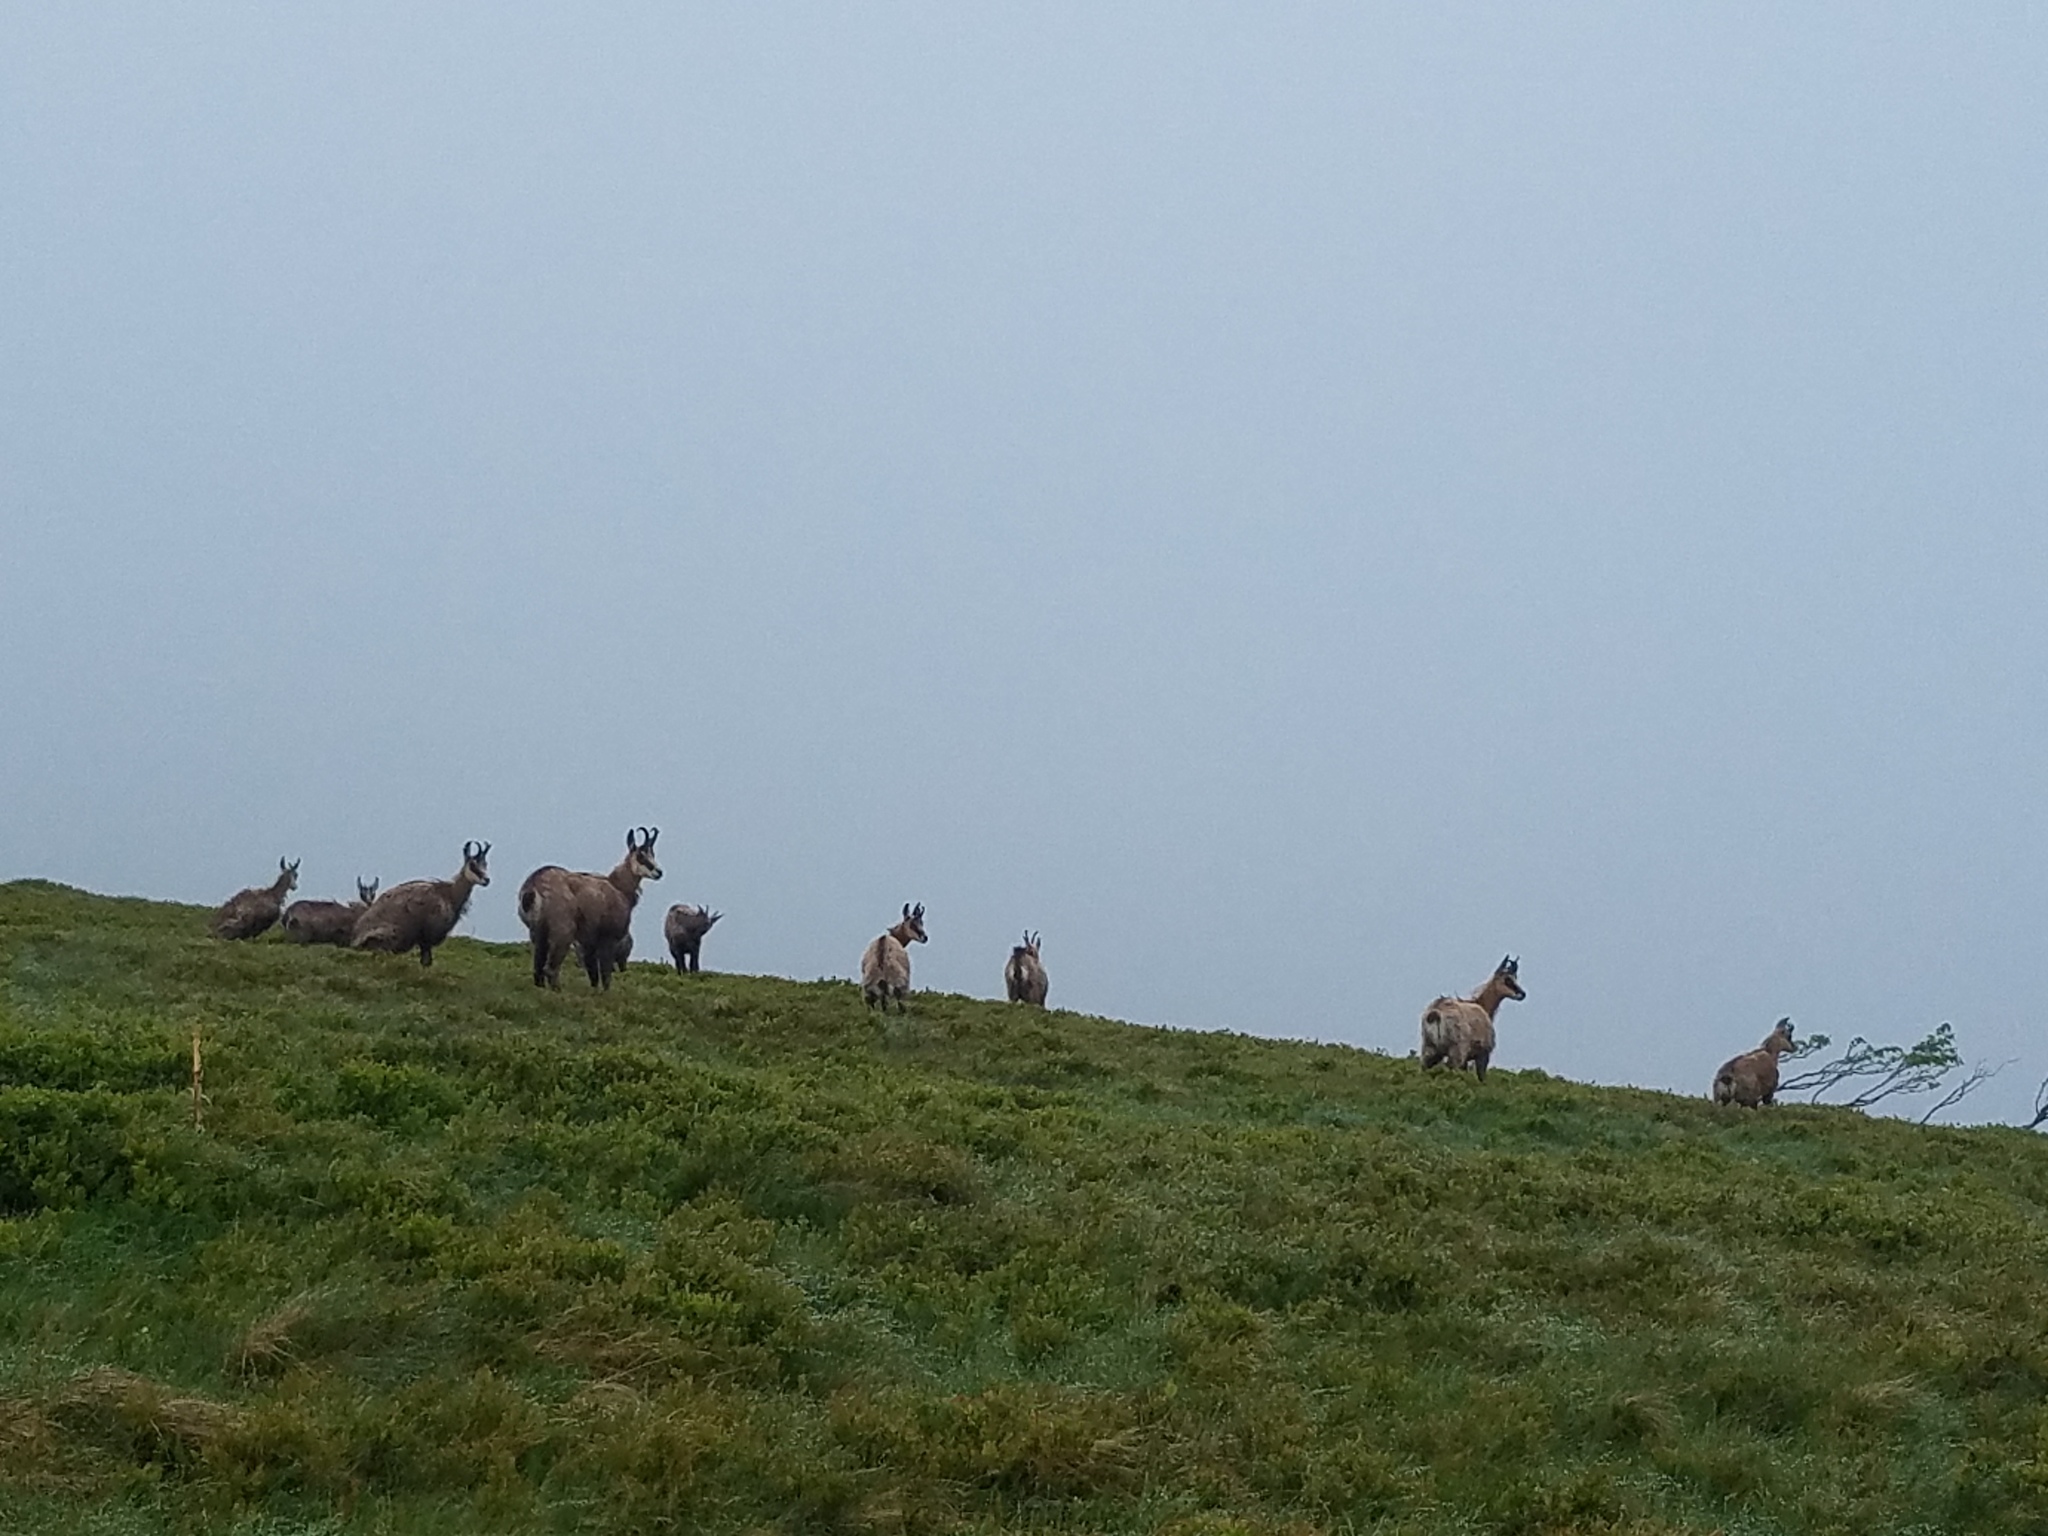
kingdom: Animalia
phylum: Chordata
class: Mammalia
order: Artiodactyla
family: Bovidae
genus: Rupicapra
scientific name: Rupicapra rupicapra
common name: Chamois
